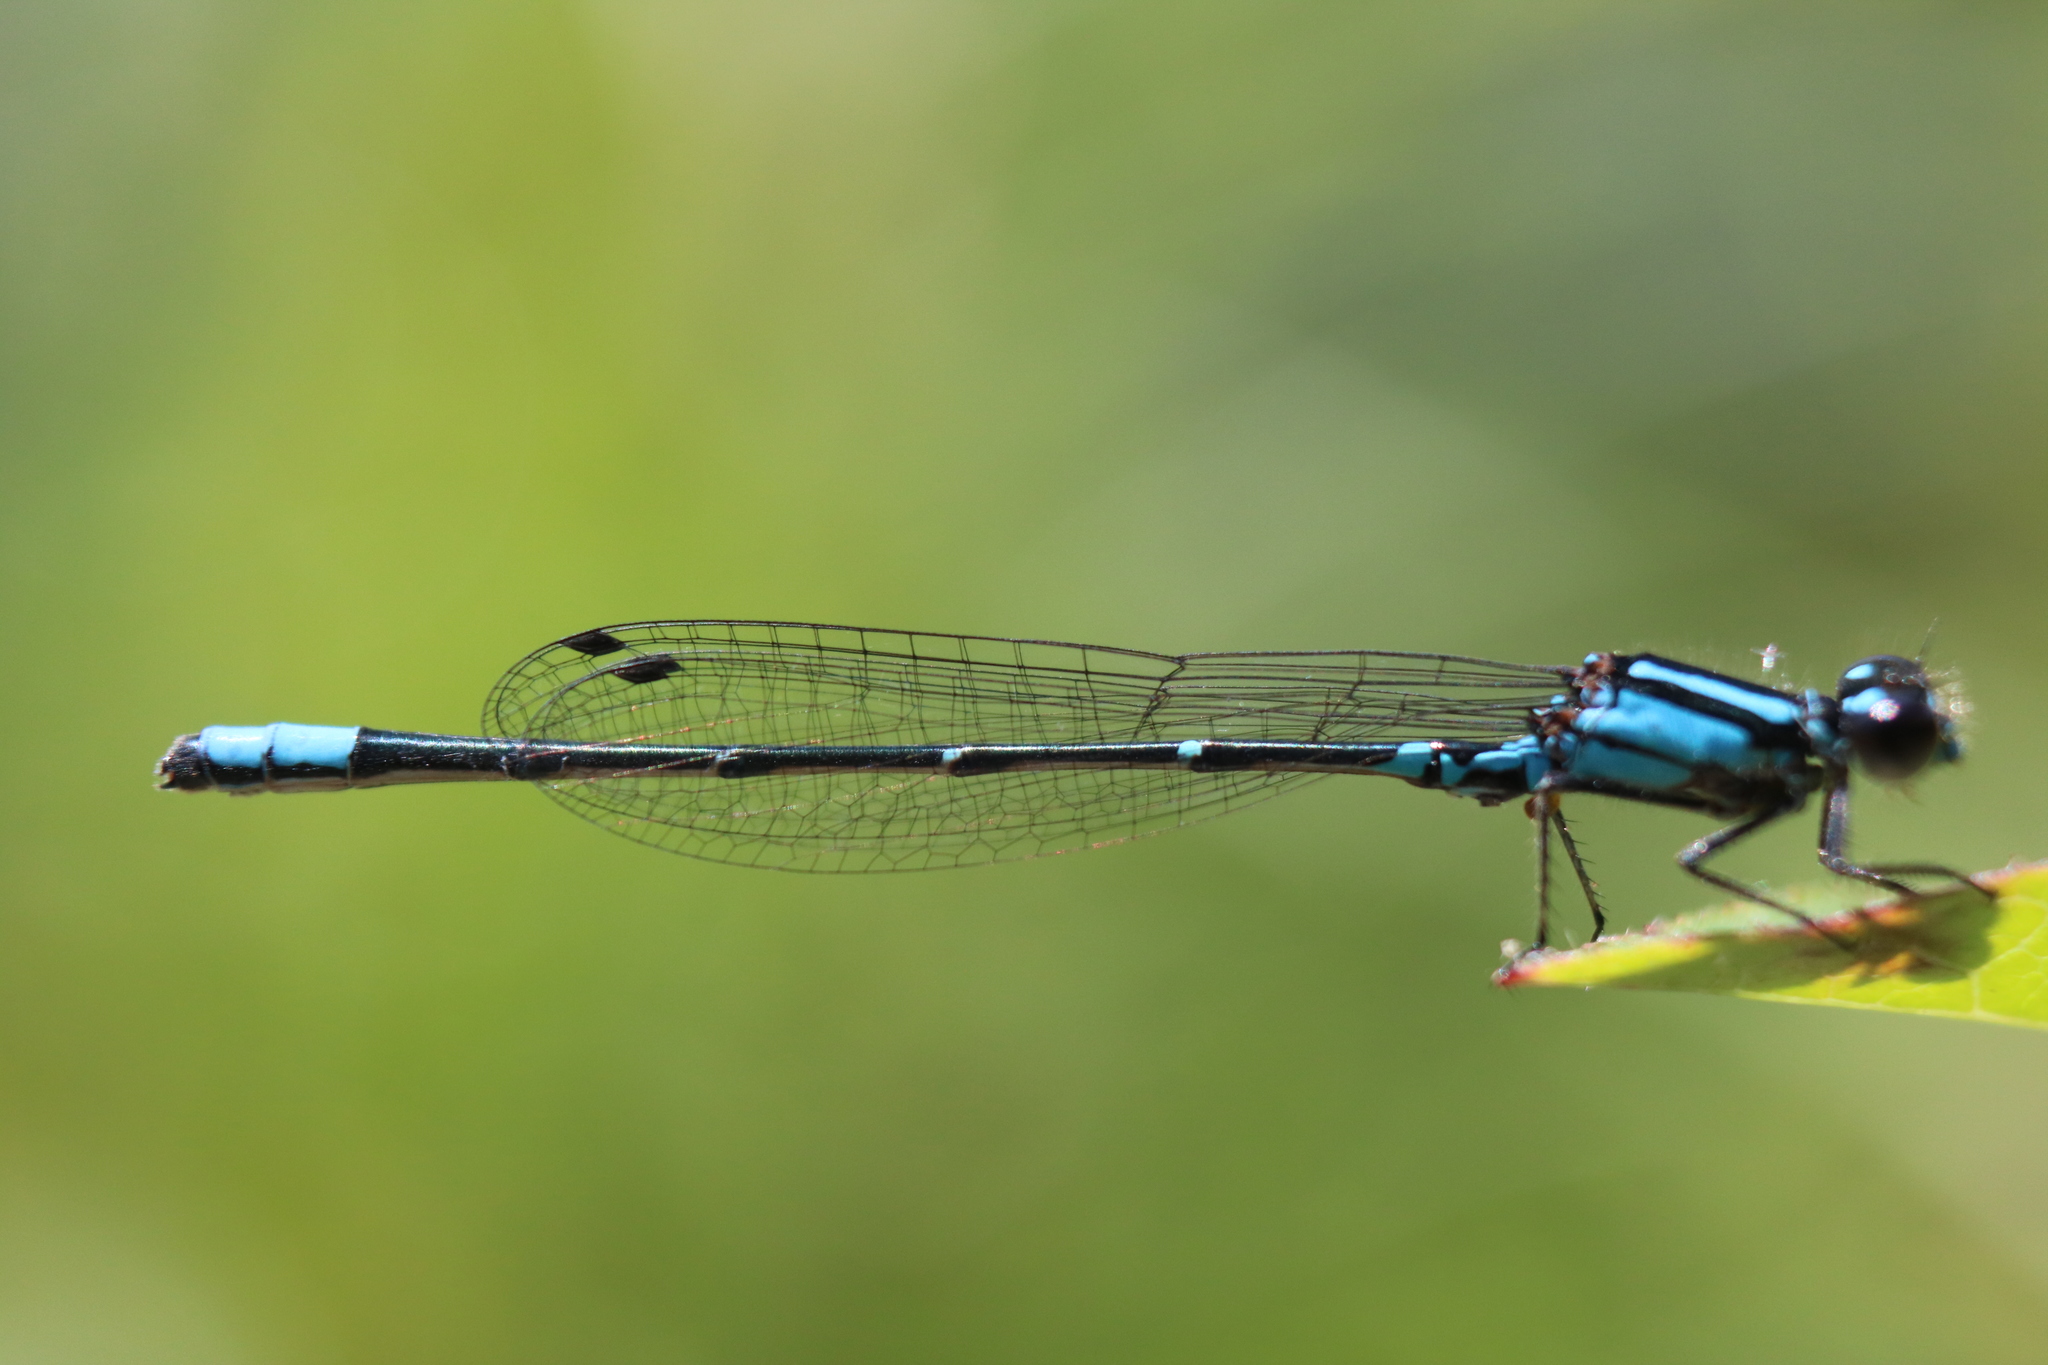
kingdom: Animalia
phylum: Arthropoda
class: Insecta
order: Odonata
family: Coenagrionidae
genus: Enallagma
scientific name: Enallagma geminatum
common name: Skimming bluet
